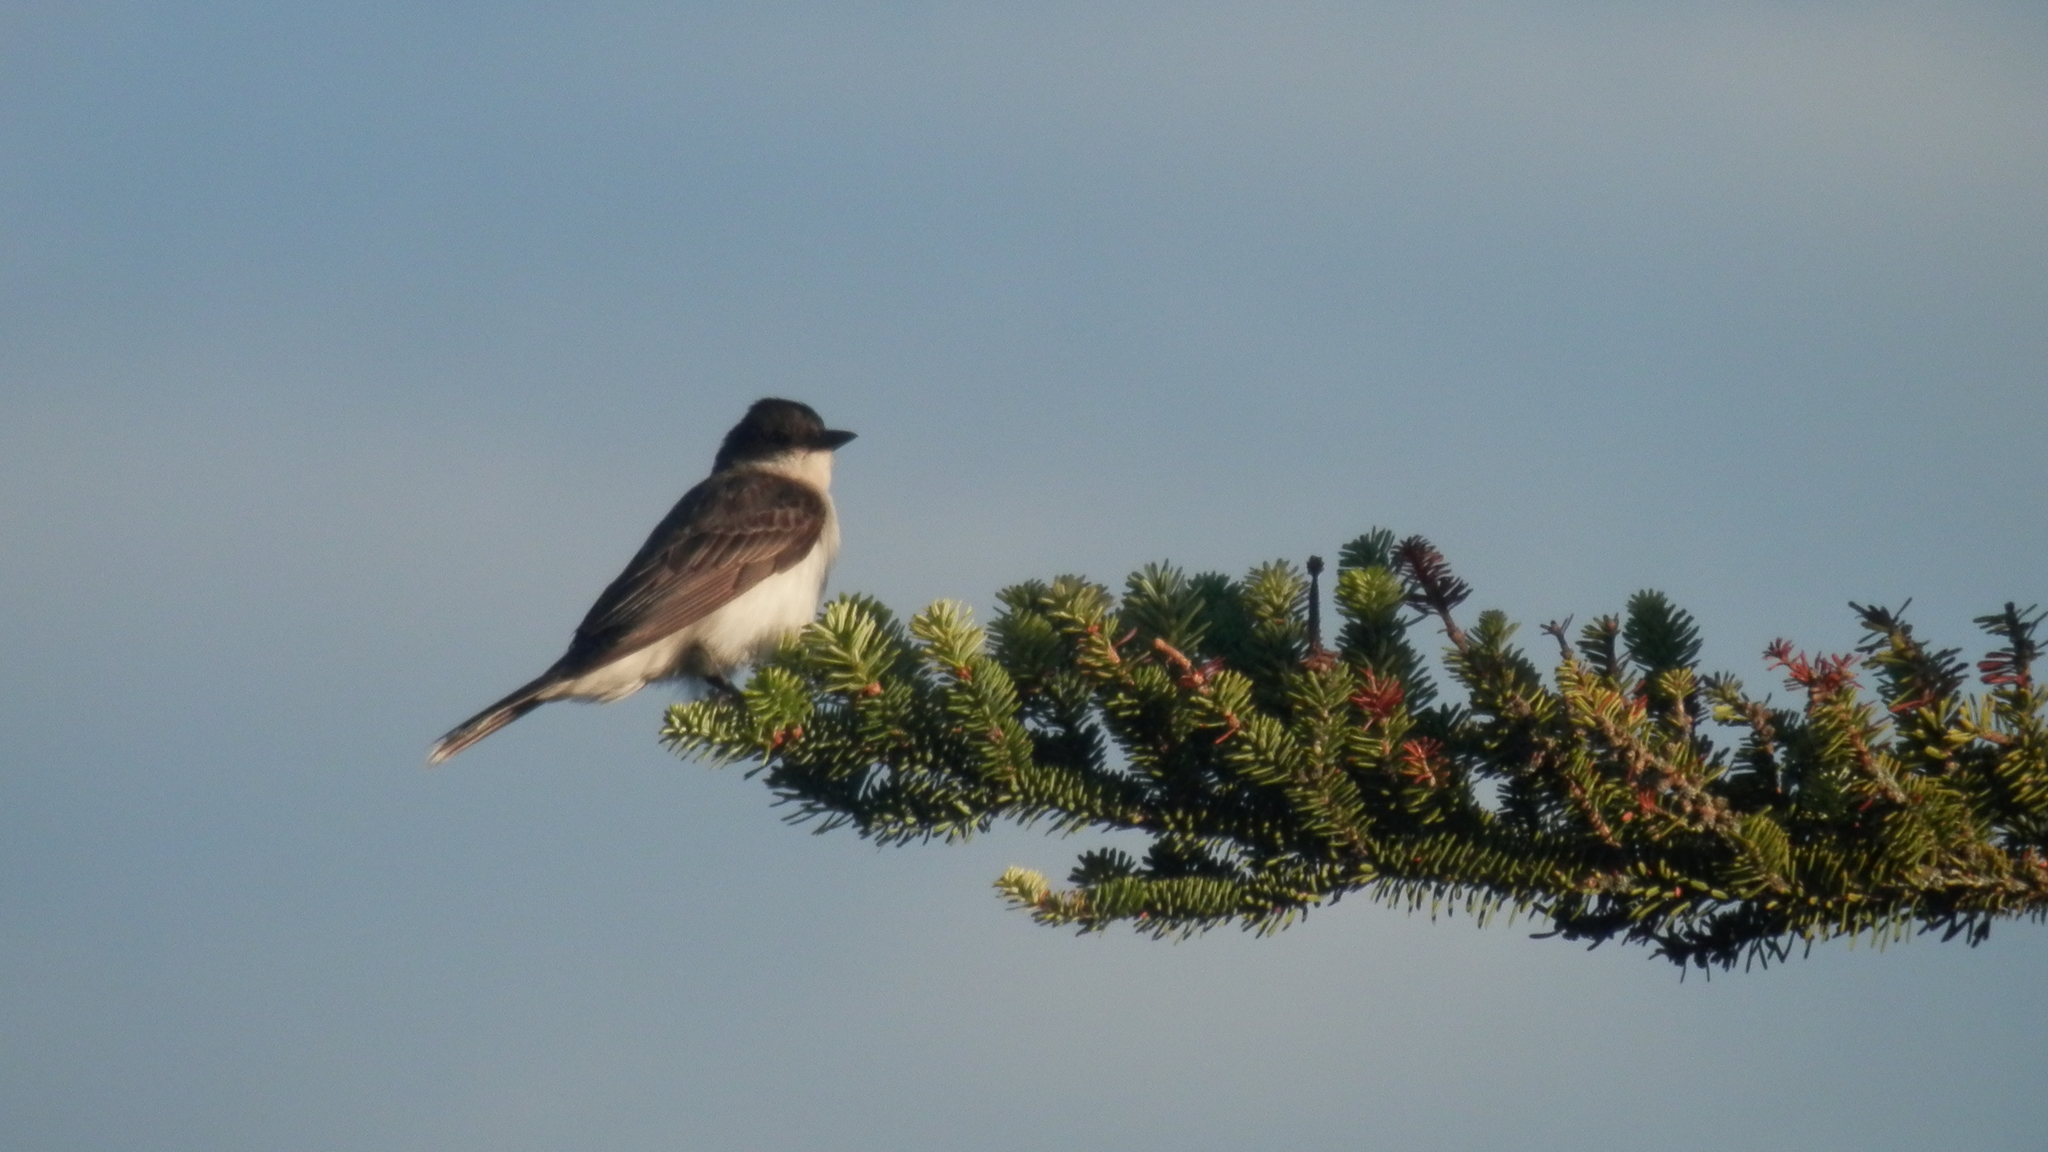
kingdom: Animalia
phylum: Chordata
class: Aves
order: Passeriformes
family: Tyrannidae
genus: Tyrannus
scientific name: Tyrannus tyrannus
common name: Eastern kingbird
